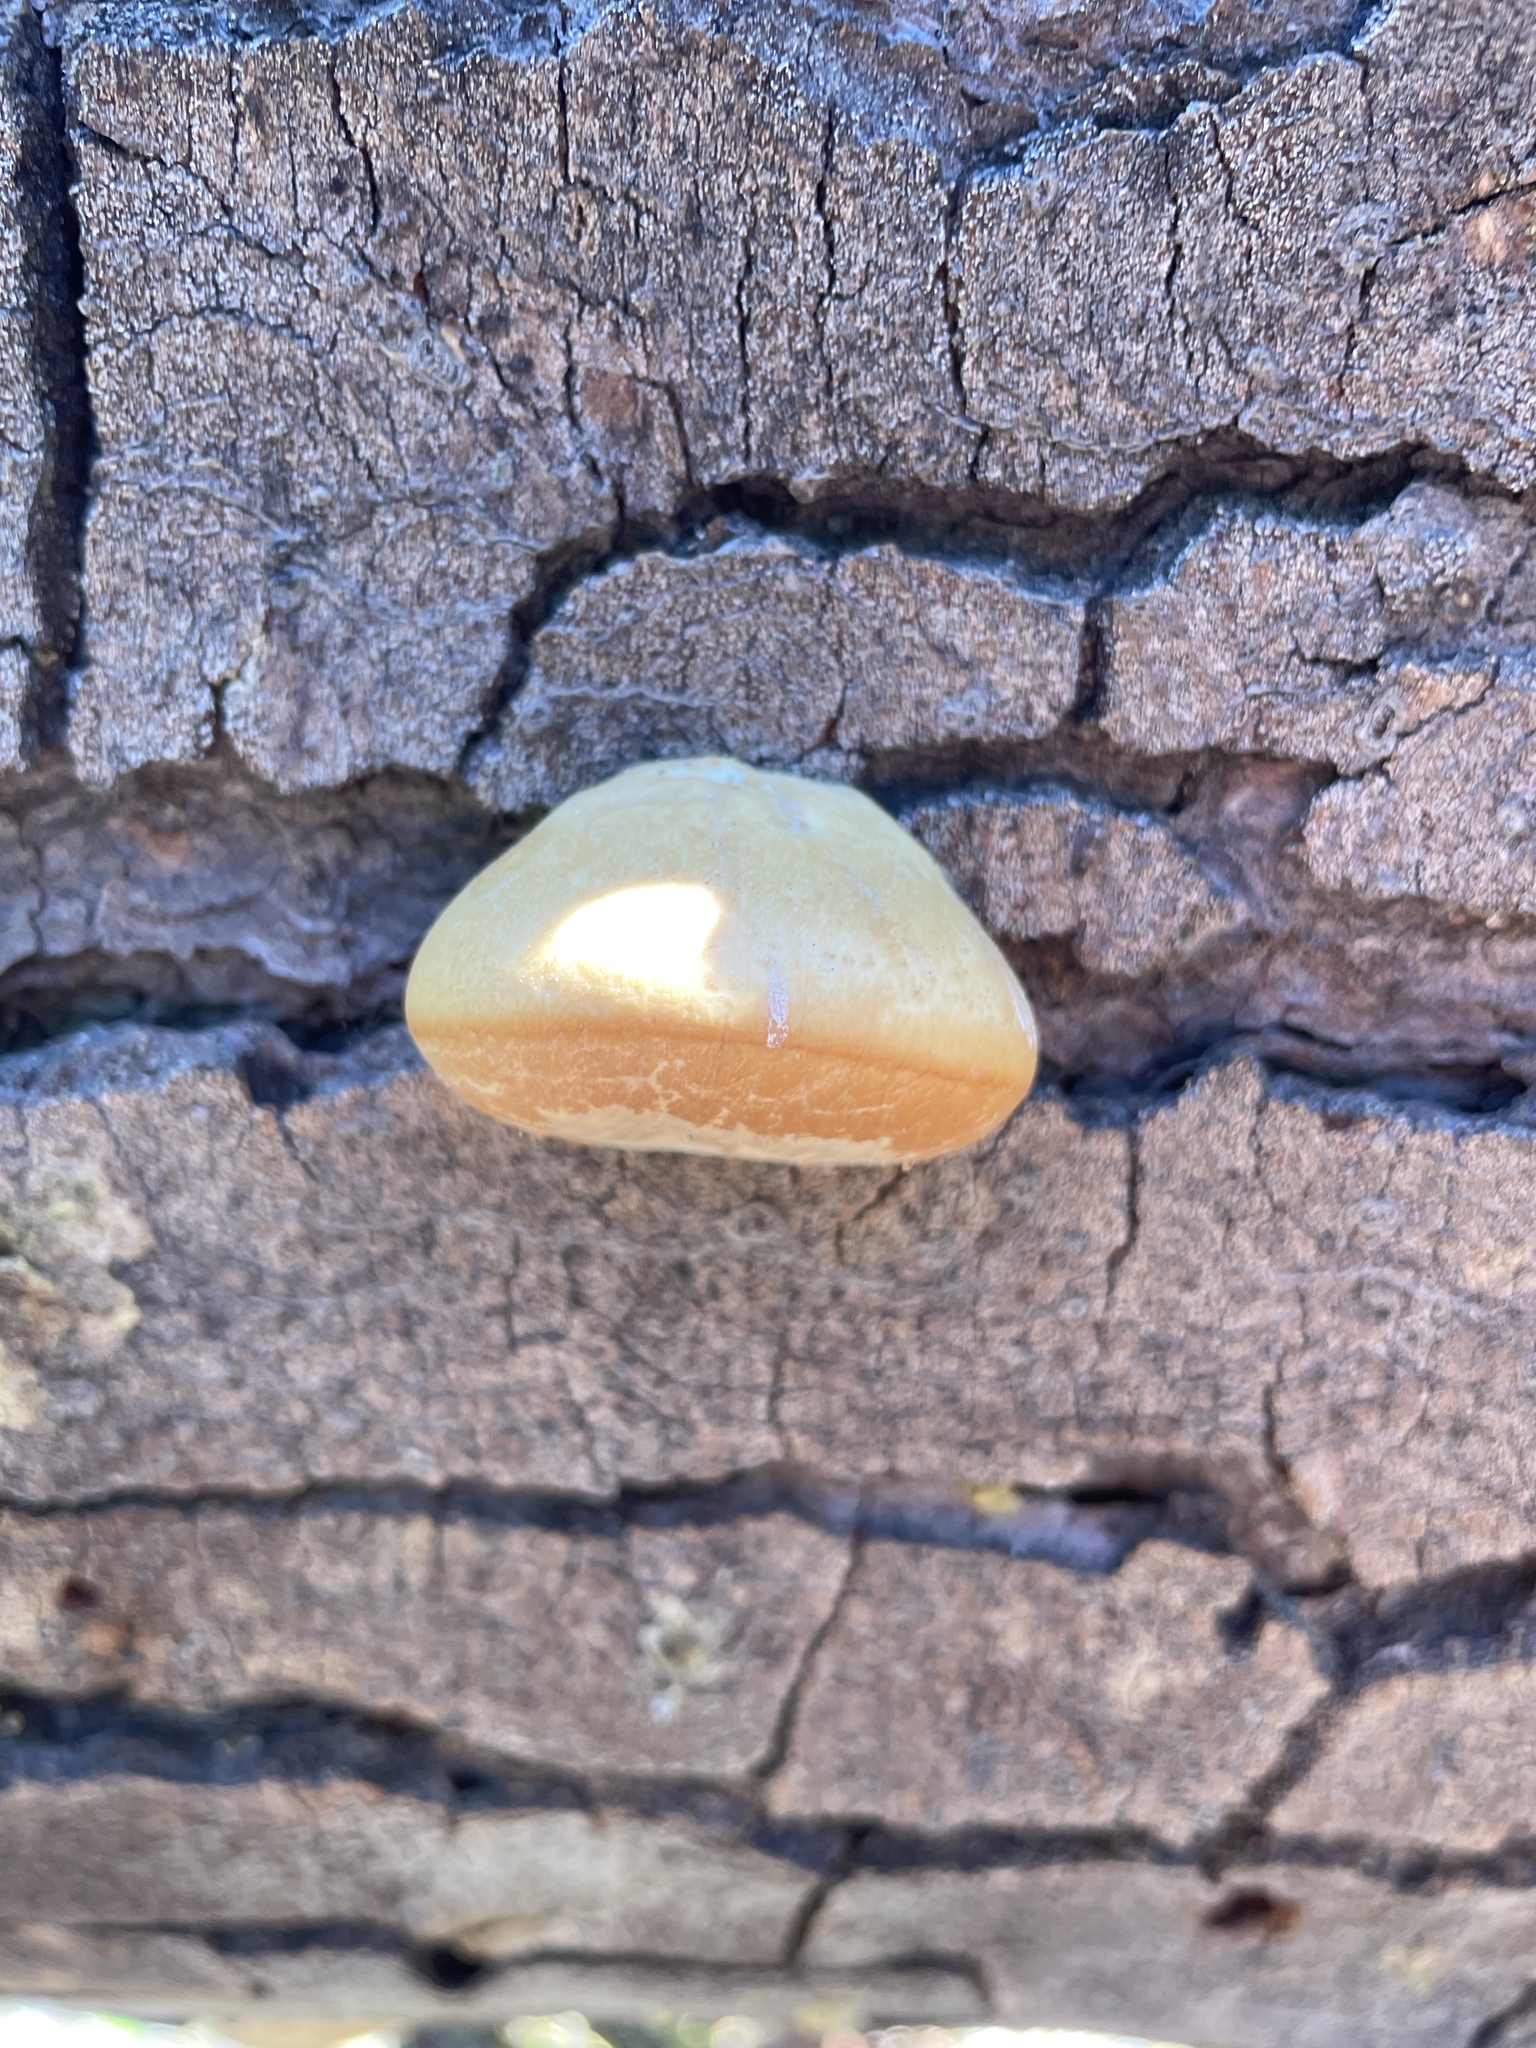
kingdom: Fungi
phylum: Basidiomycota
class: Agaricomycetes
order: Polyporales
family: Polyporaceae
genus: Cryptoporus
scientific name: Cryptoporus volvatus
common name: Veiled polypore
